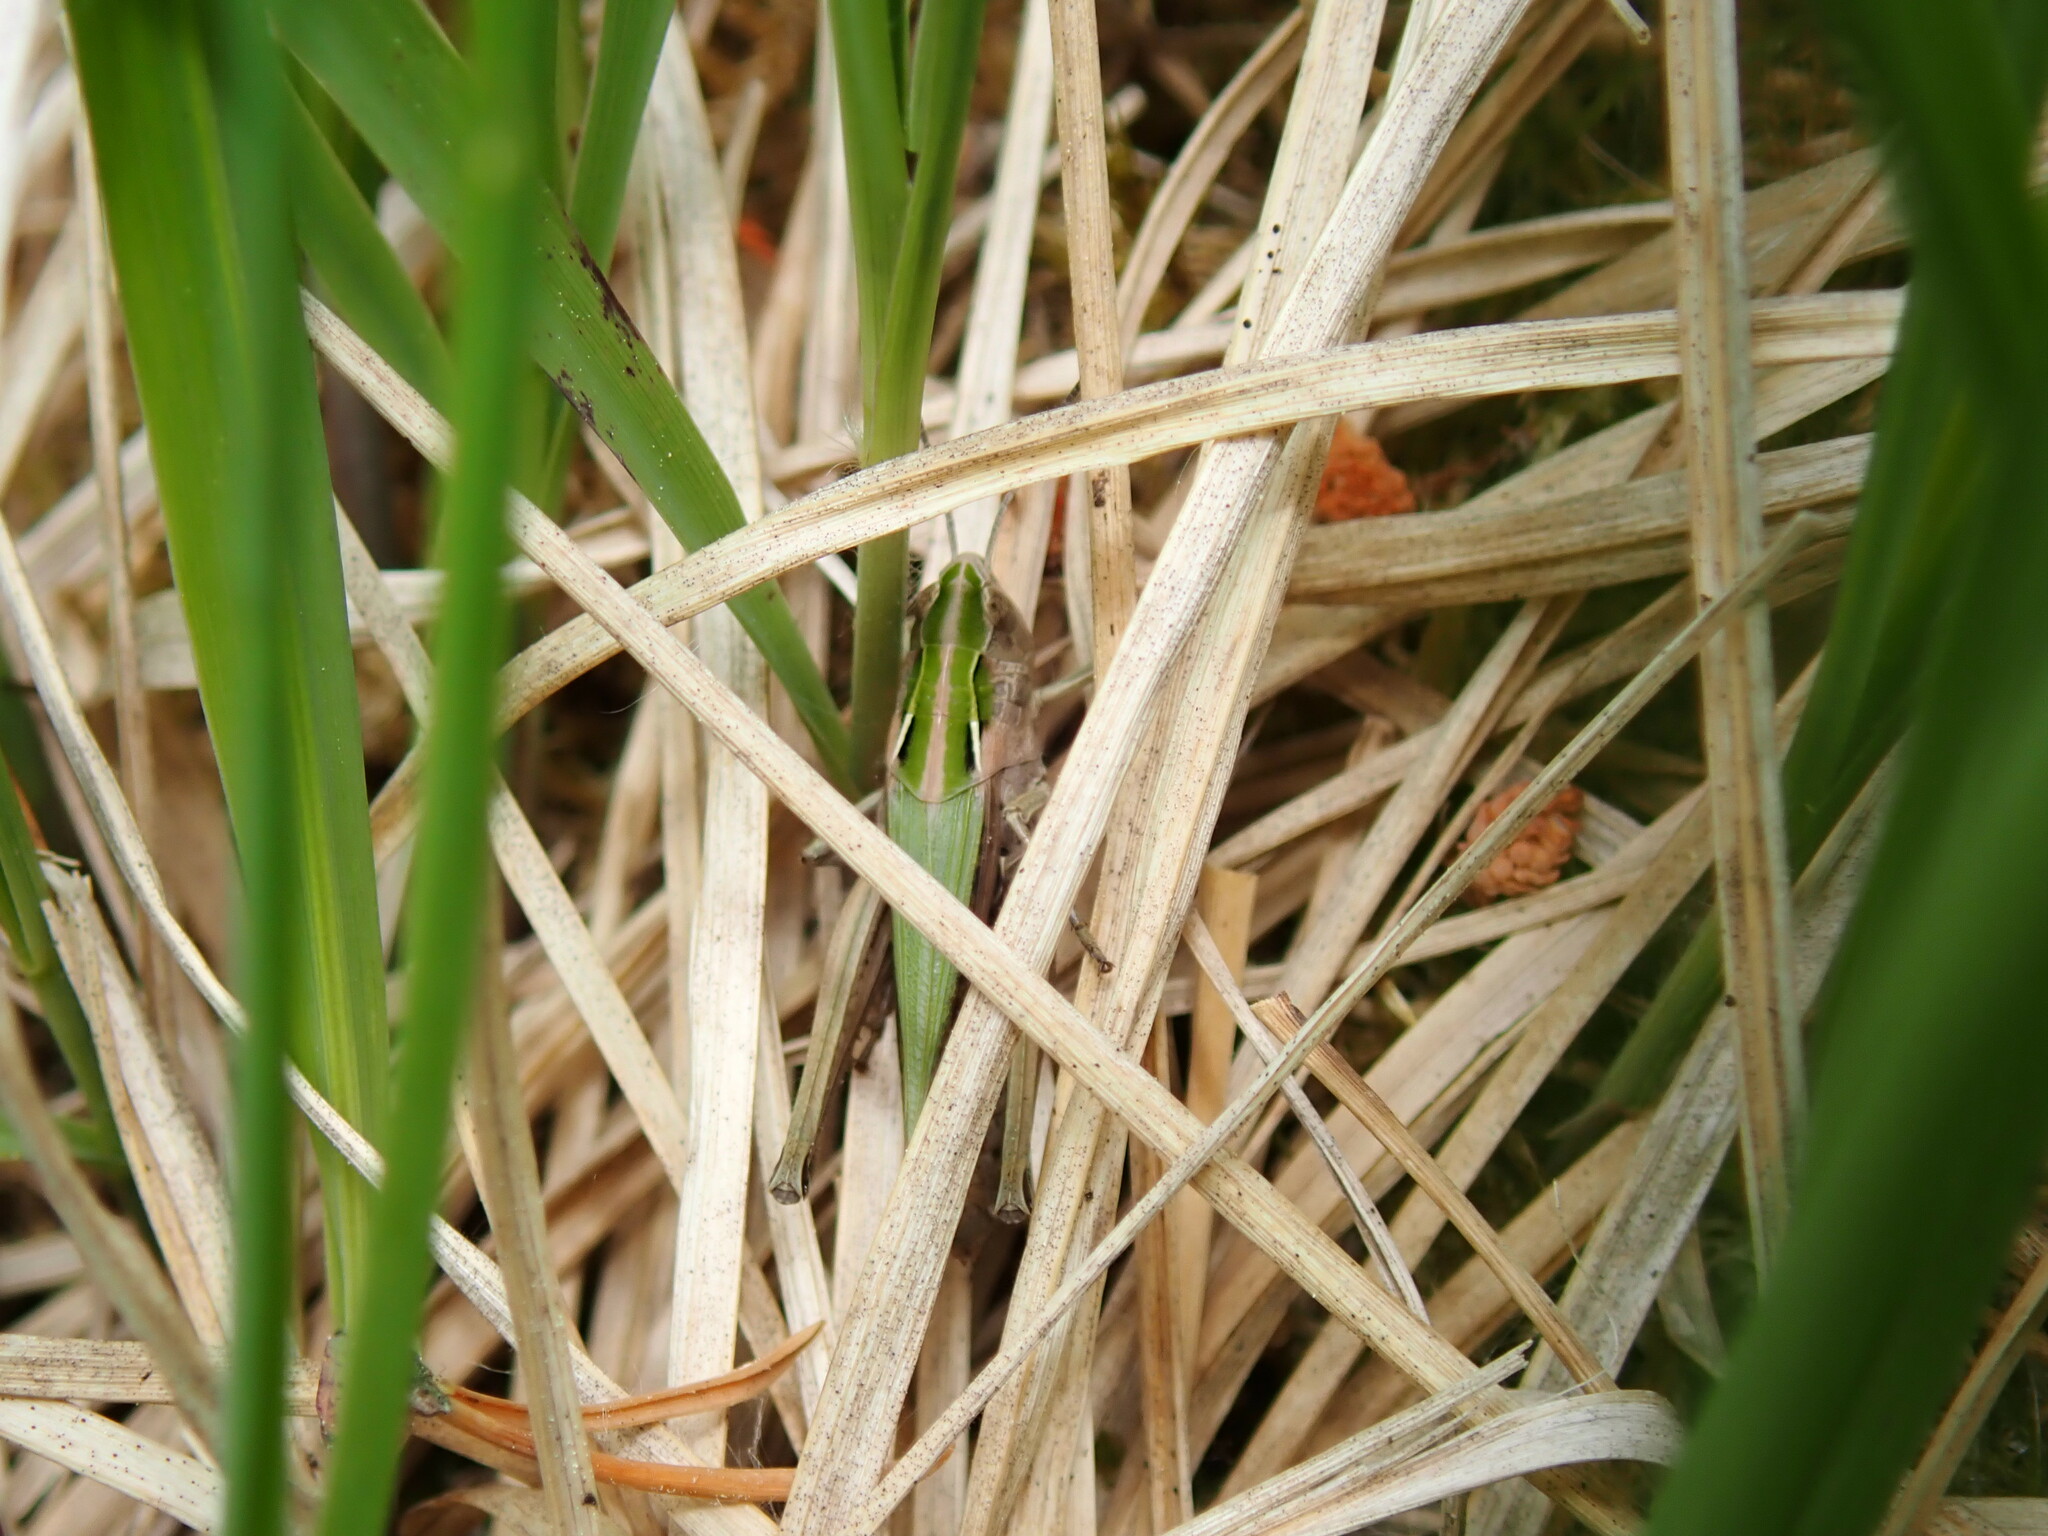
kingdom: Animalia
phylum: Arthropoda
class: Insecta
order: Orthoptera
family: Acrididae
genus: Omocestus
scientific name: Omocestus viridulus
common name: Common green grasshopper
